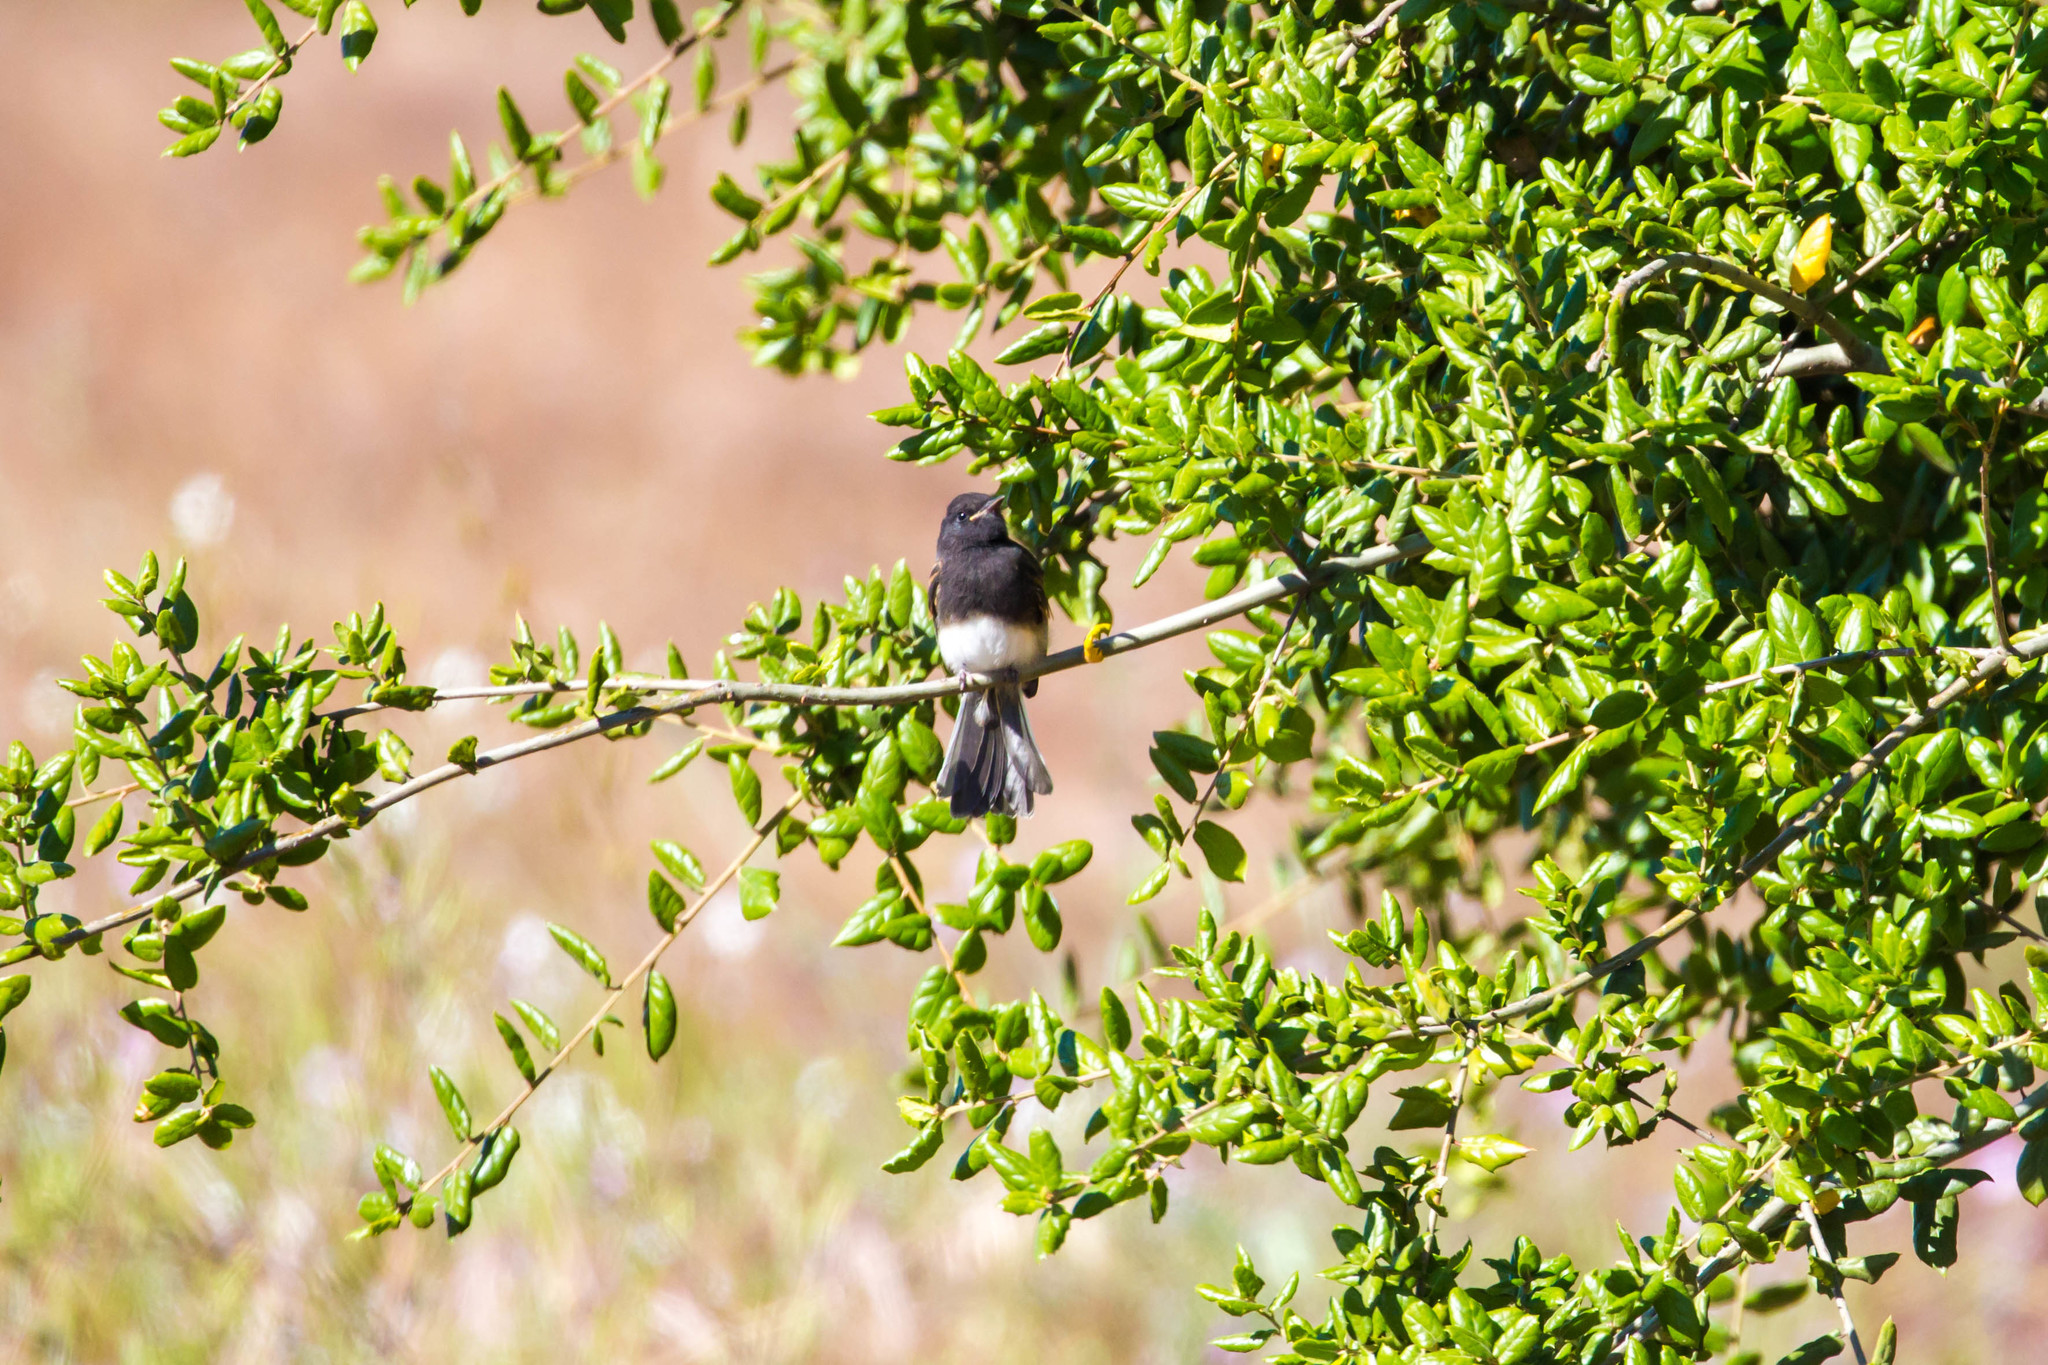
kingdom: Animalia
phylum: Chordata
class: Aves
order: Passeriformes
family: Tyrannidae
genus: Sayornis
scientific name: Sayornis nigricans
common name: Black phoebe
